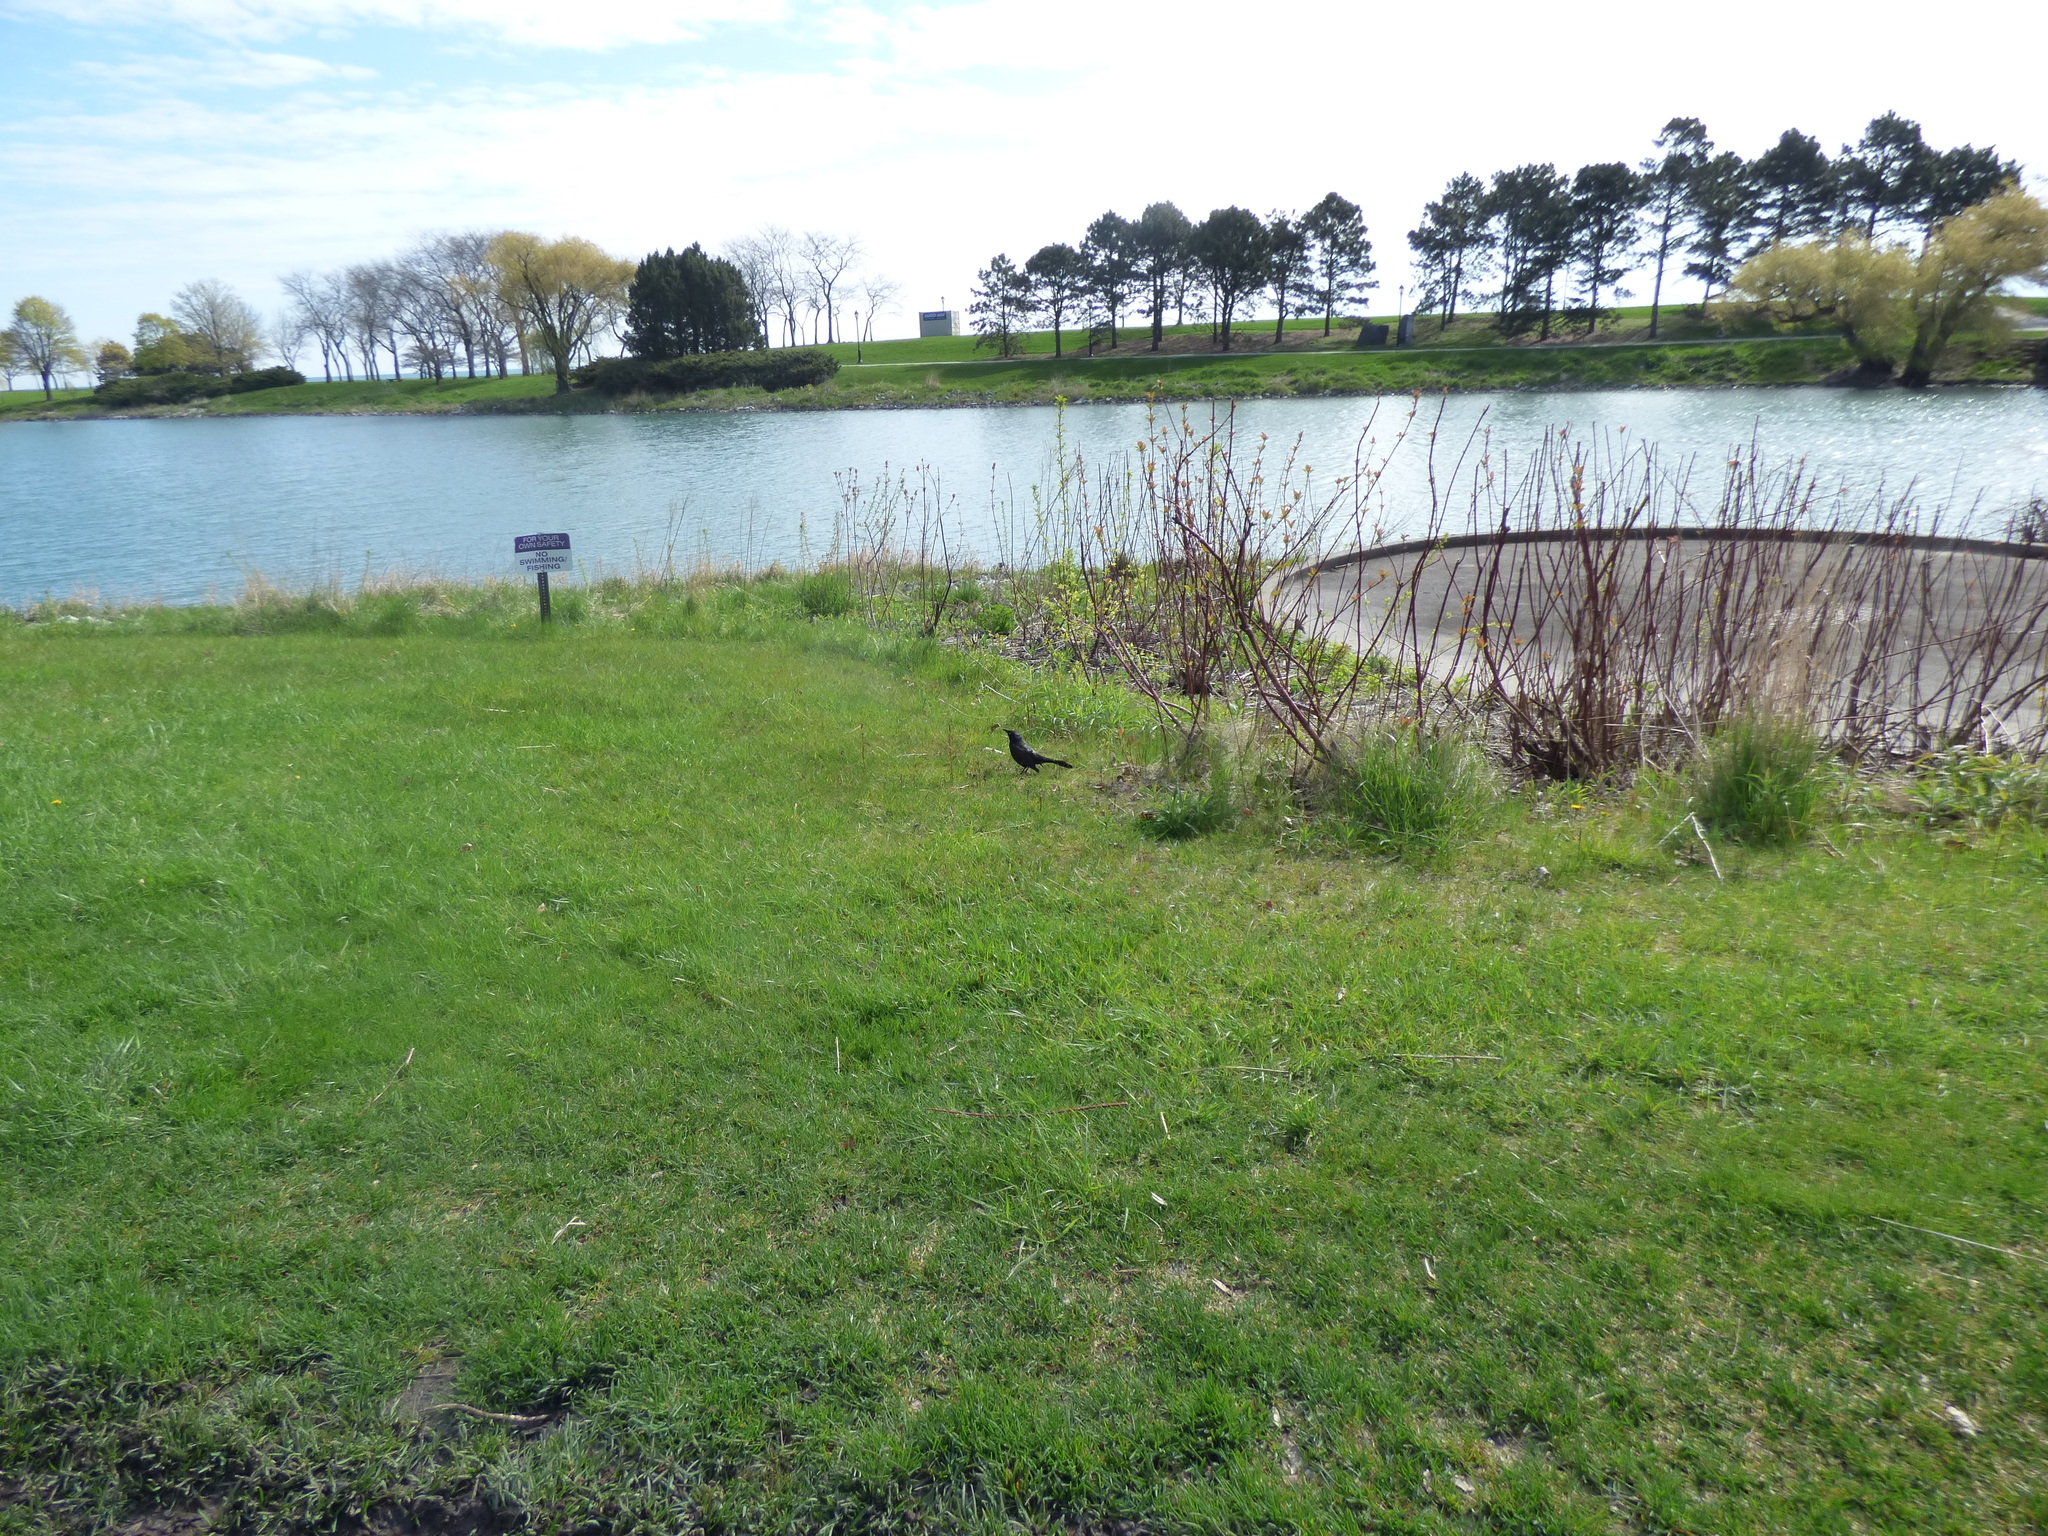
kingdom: Animalia
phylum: Chordata
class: Aves
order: Passeriformes
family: Icteridae
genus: Quiscalus
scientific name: Quiscalus quiscula
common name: Common grackle
